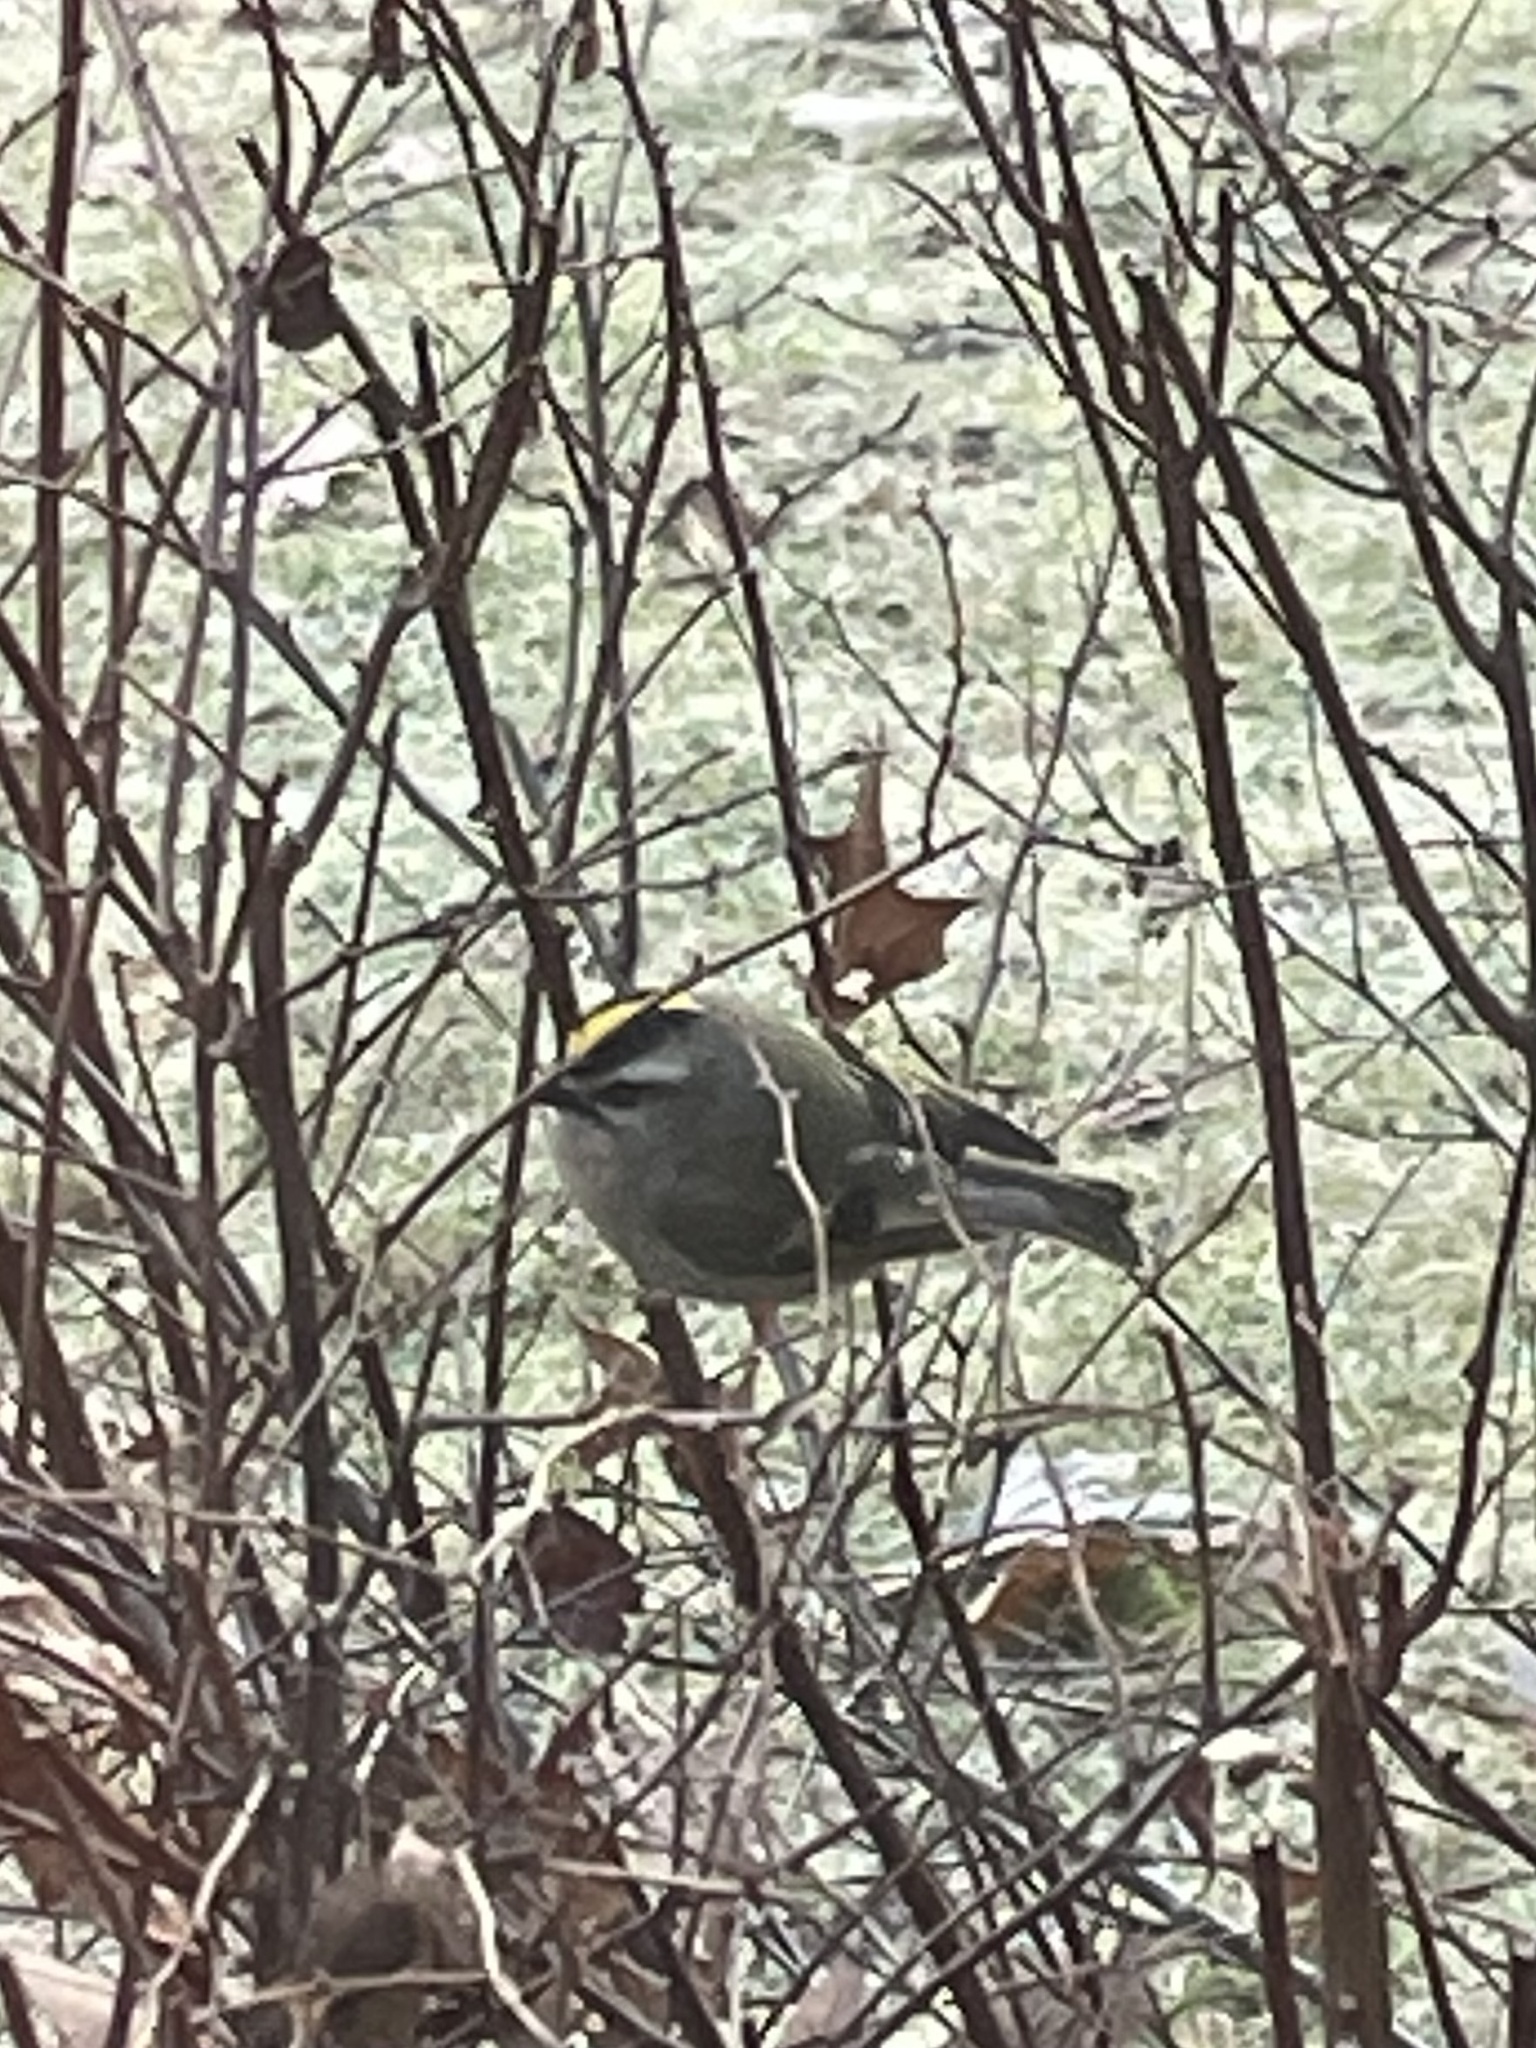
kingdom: Animalia
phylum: Chordata
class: Aves
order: Passeriformes
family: Regulidae
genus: Regulus
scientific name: Regulus satrapa
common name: Golden-crowned kinglet
